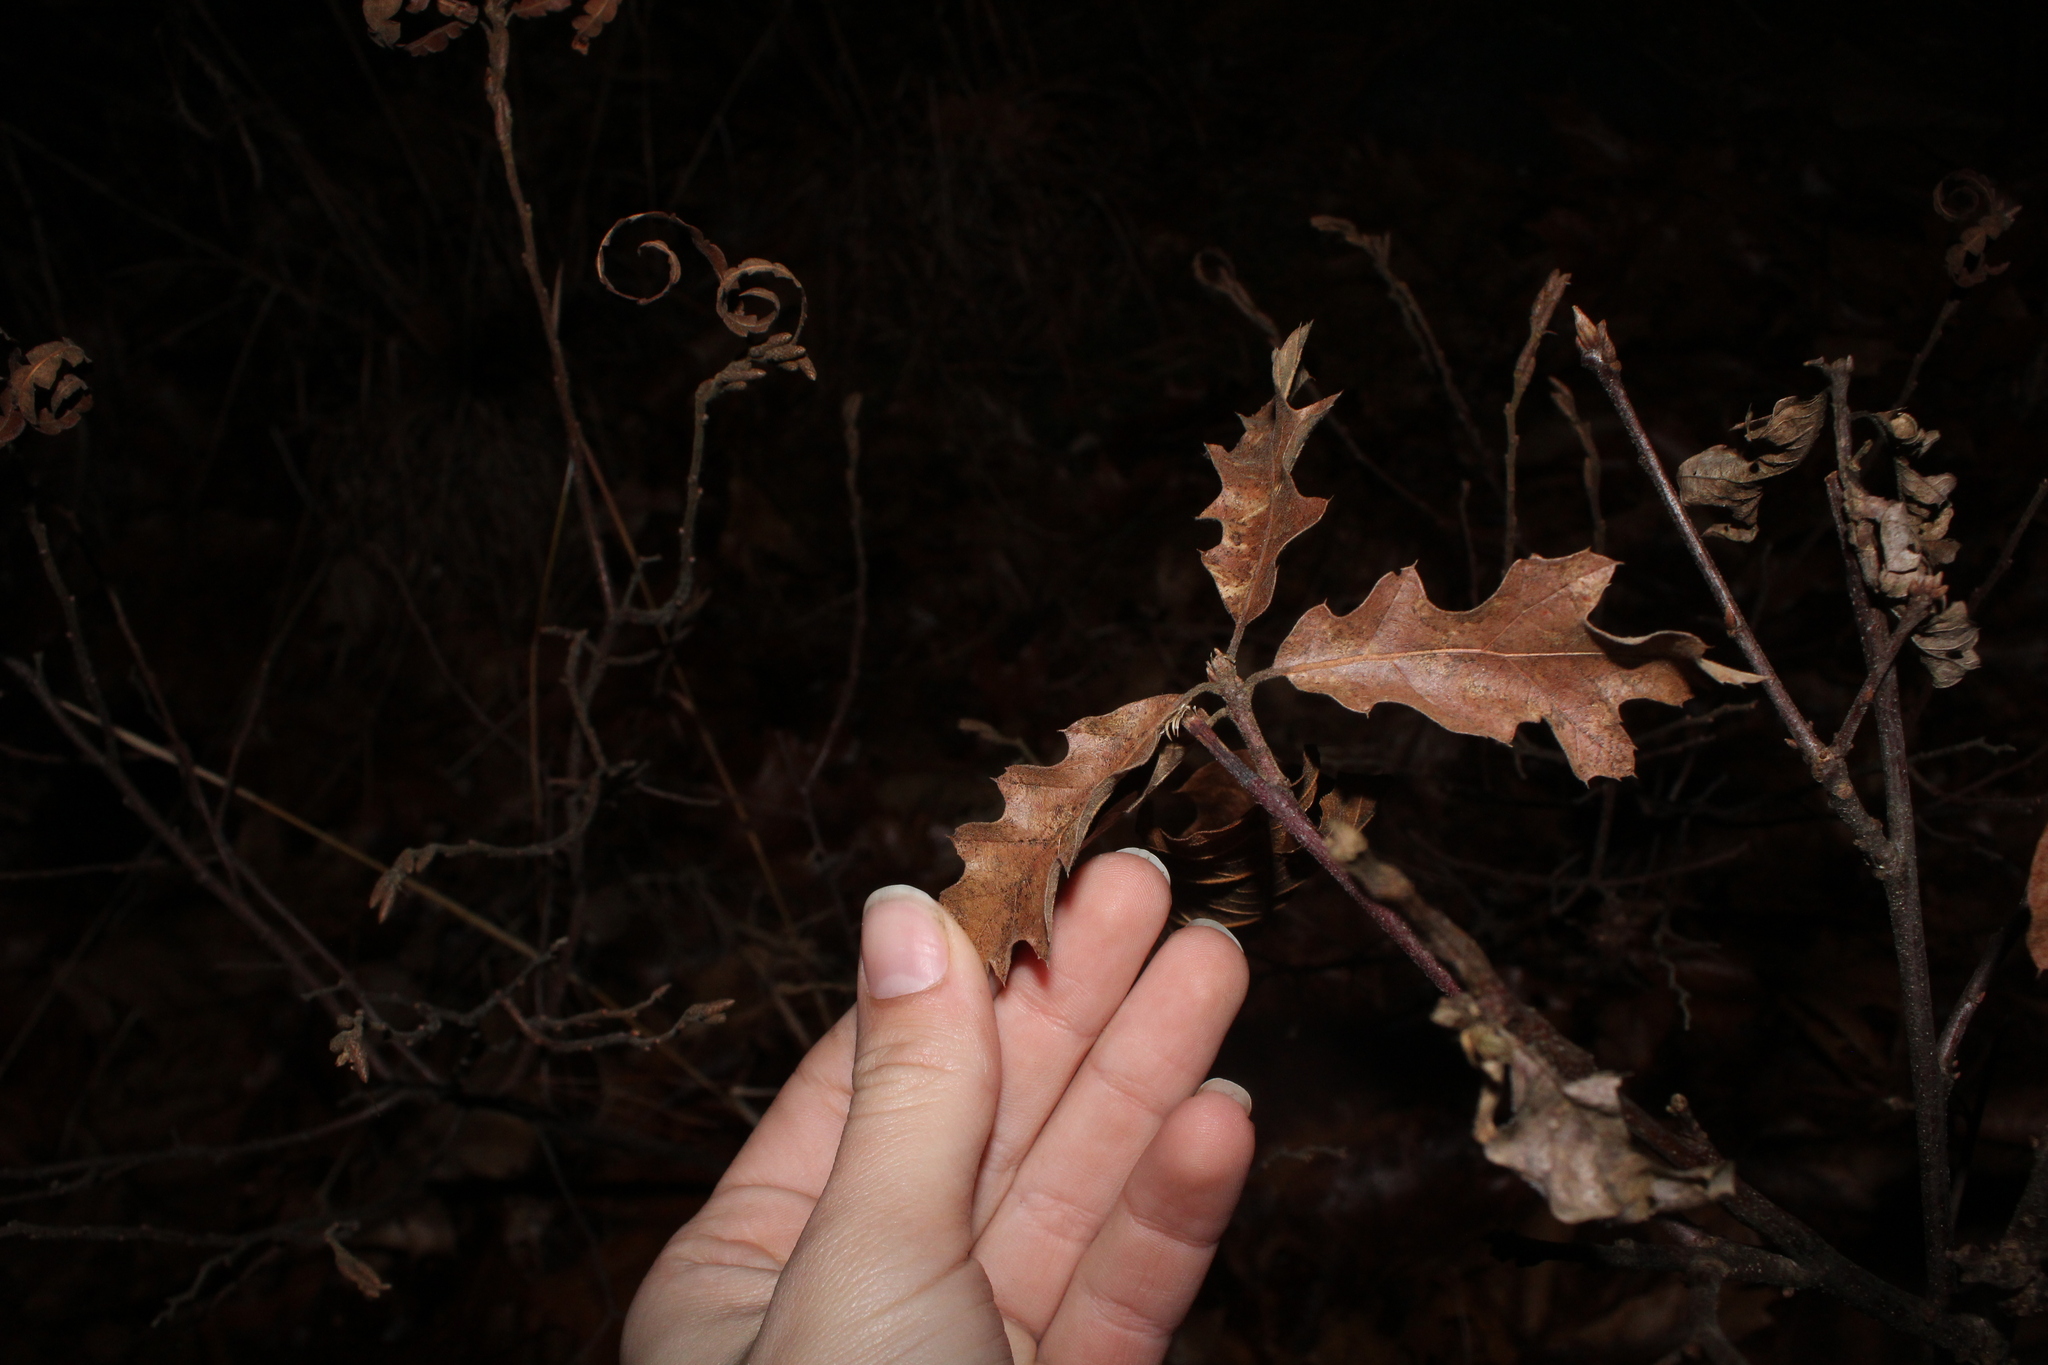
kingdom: Plantae
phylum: Tracheophyta
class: Magnoliopsida
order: Fagales
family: Fagaceae
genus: Quercus
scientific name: Quercus rubra
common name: Red oak
